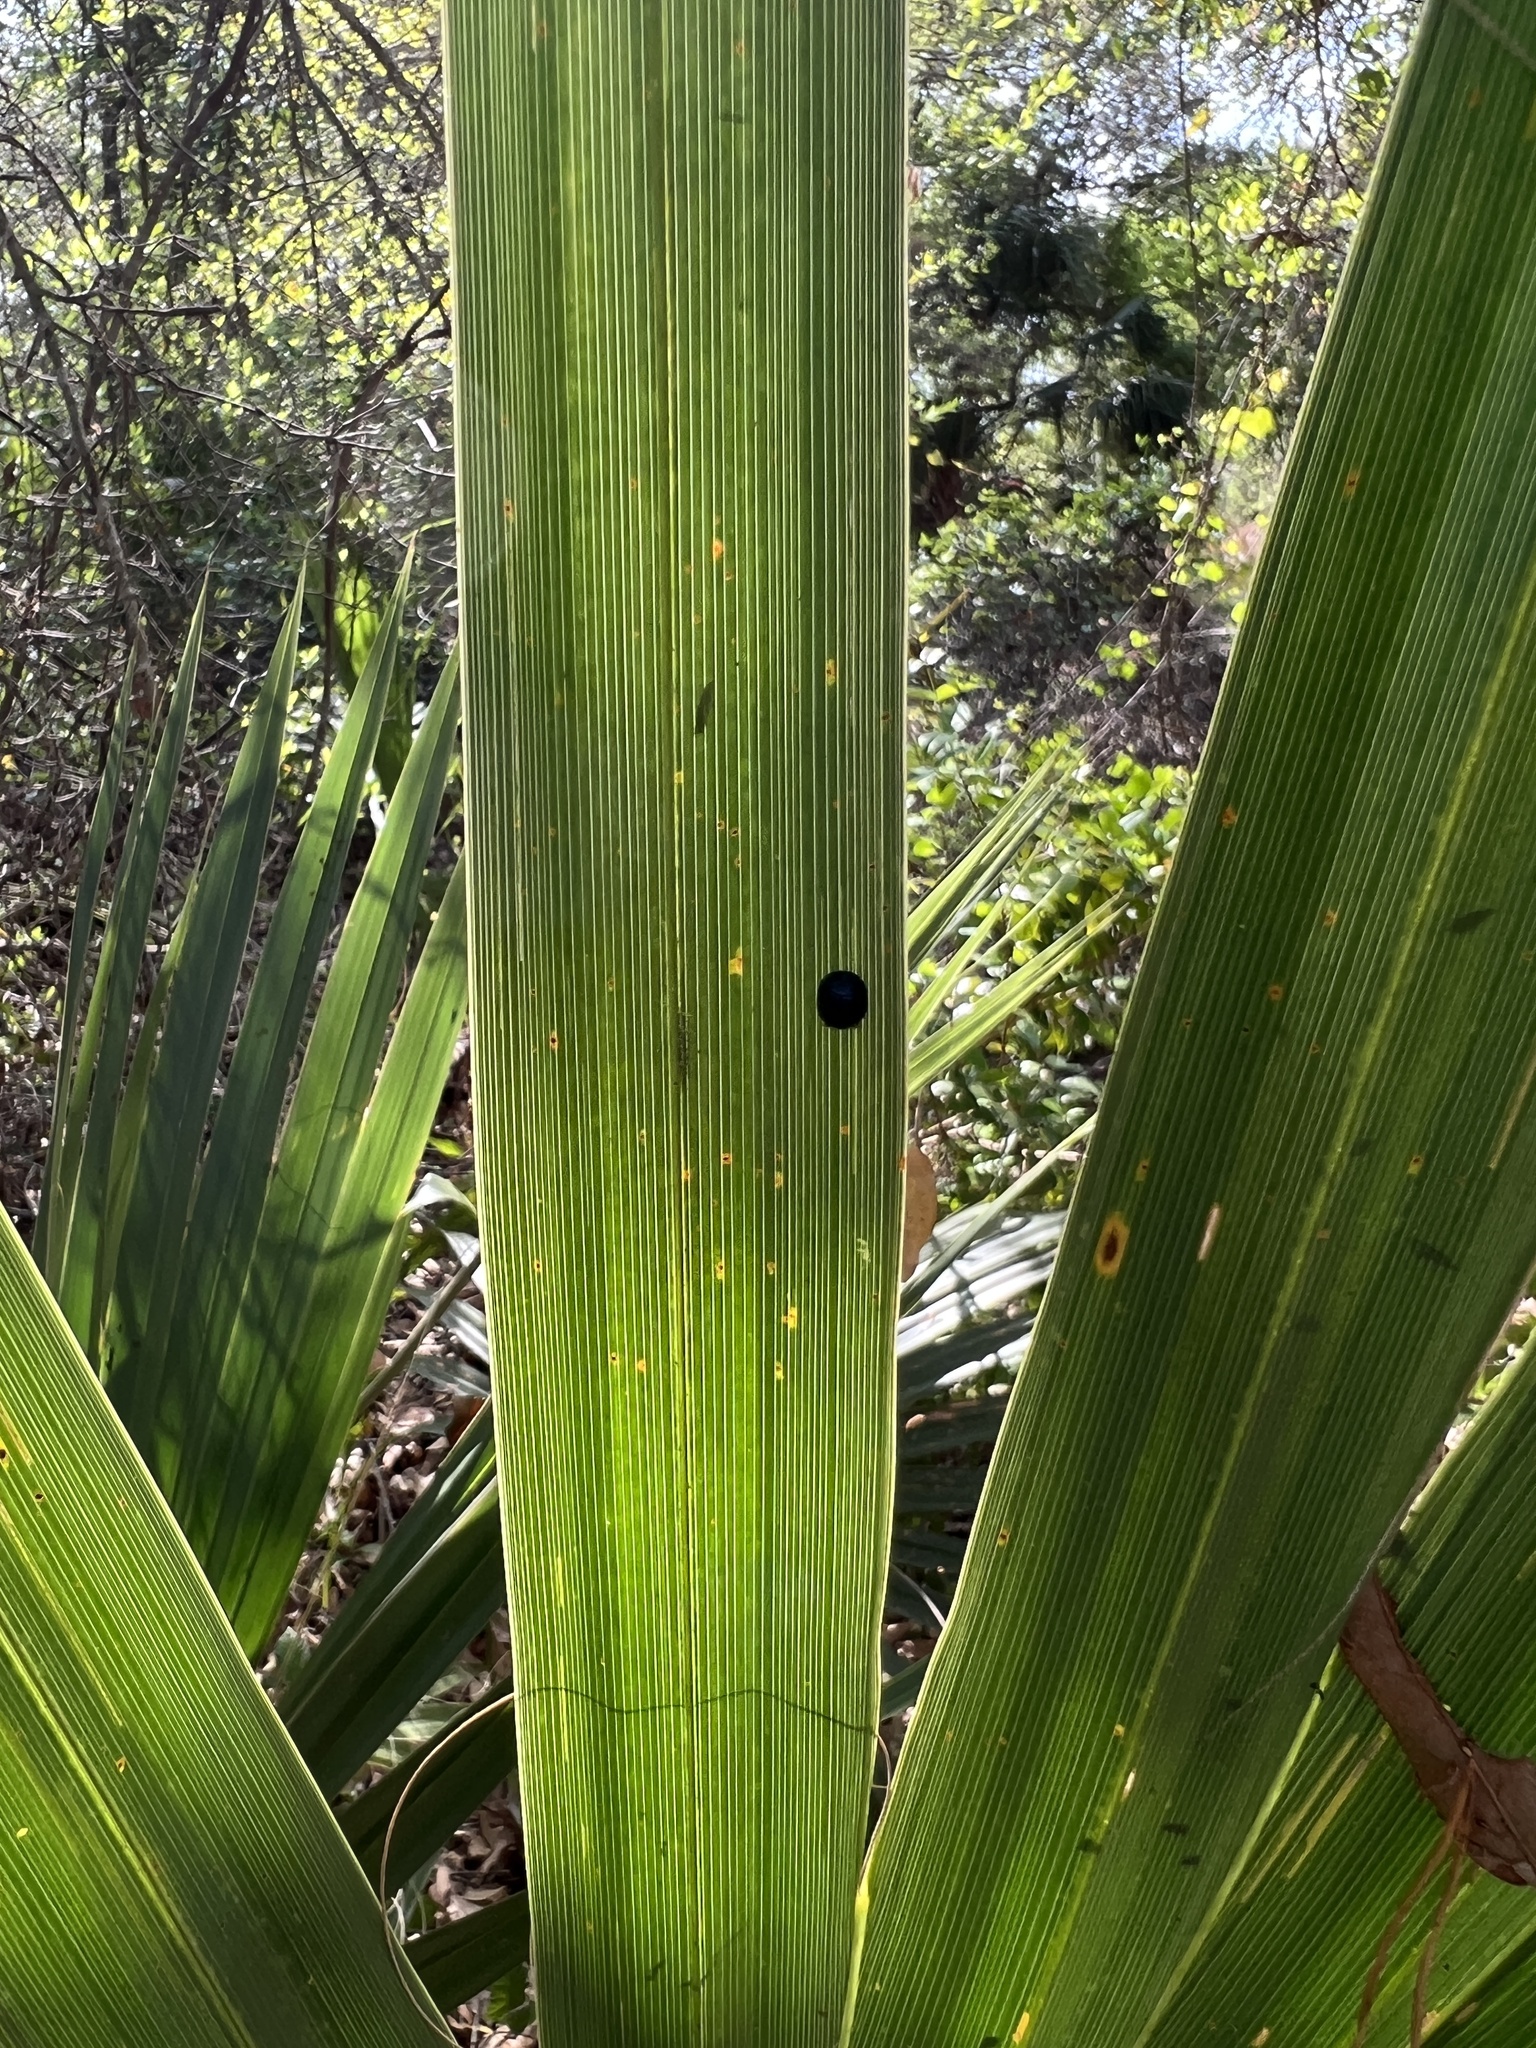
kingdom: Animalia
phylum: Arthropoda
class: Insecta
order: Coleoptera
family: Chrysomelidae
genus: Hemisphaerota
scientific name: Hemisphaerota cyanea
